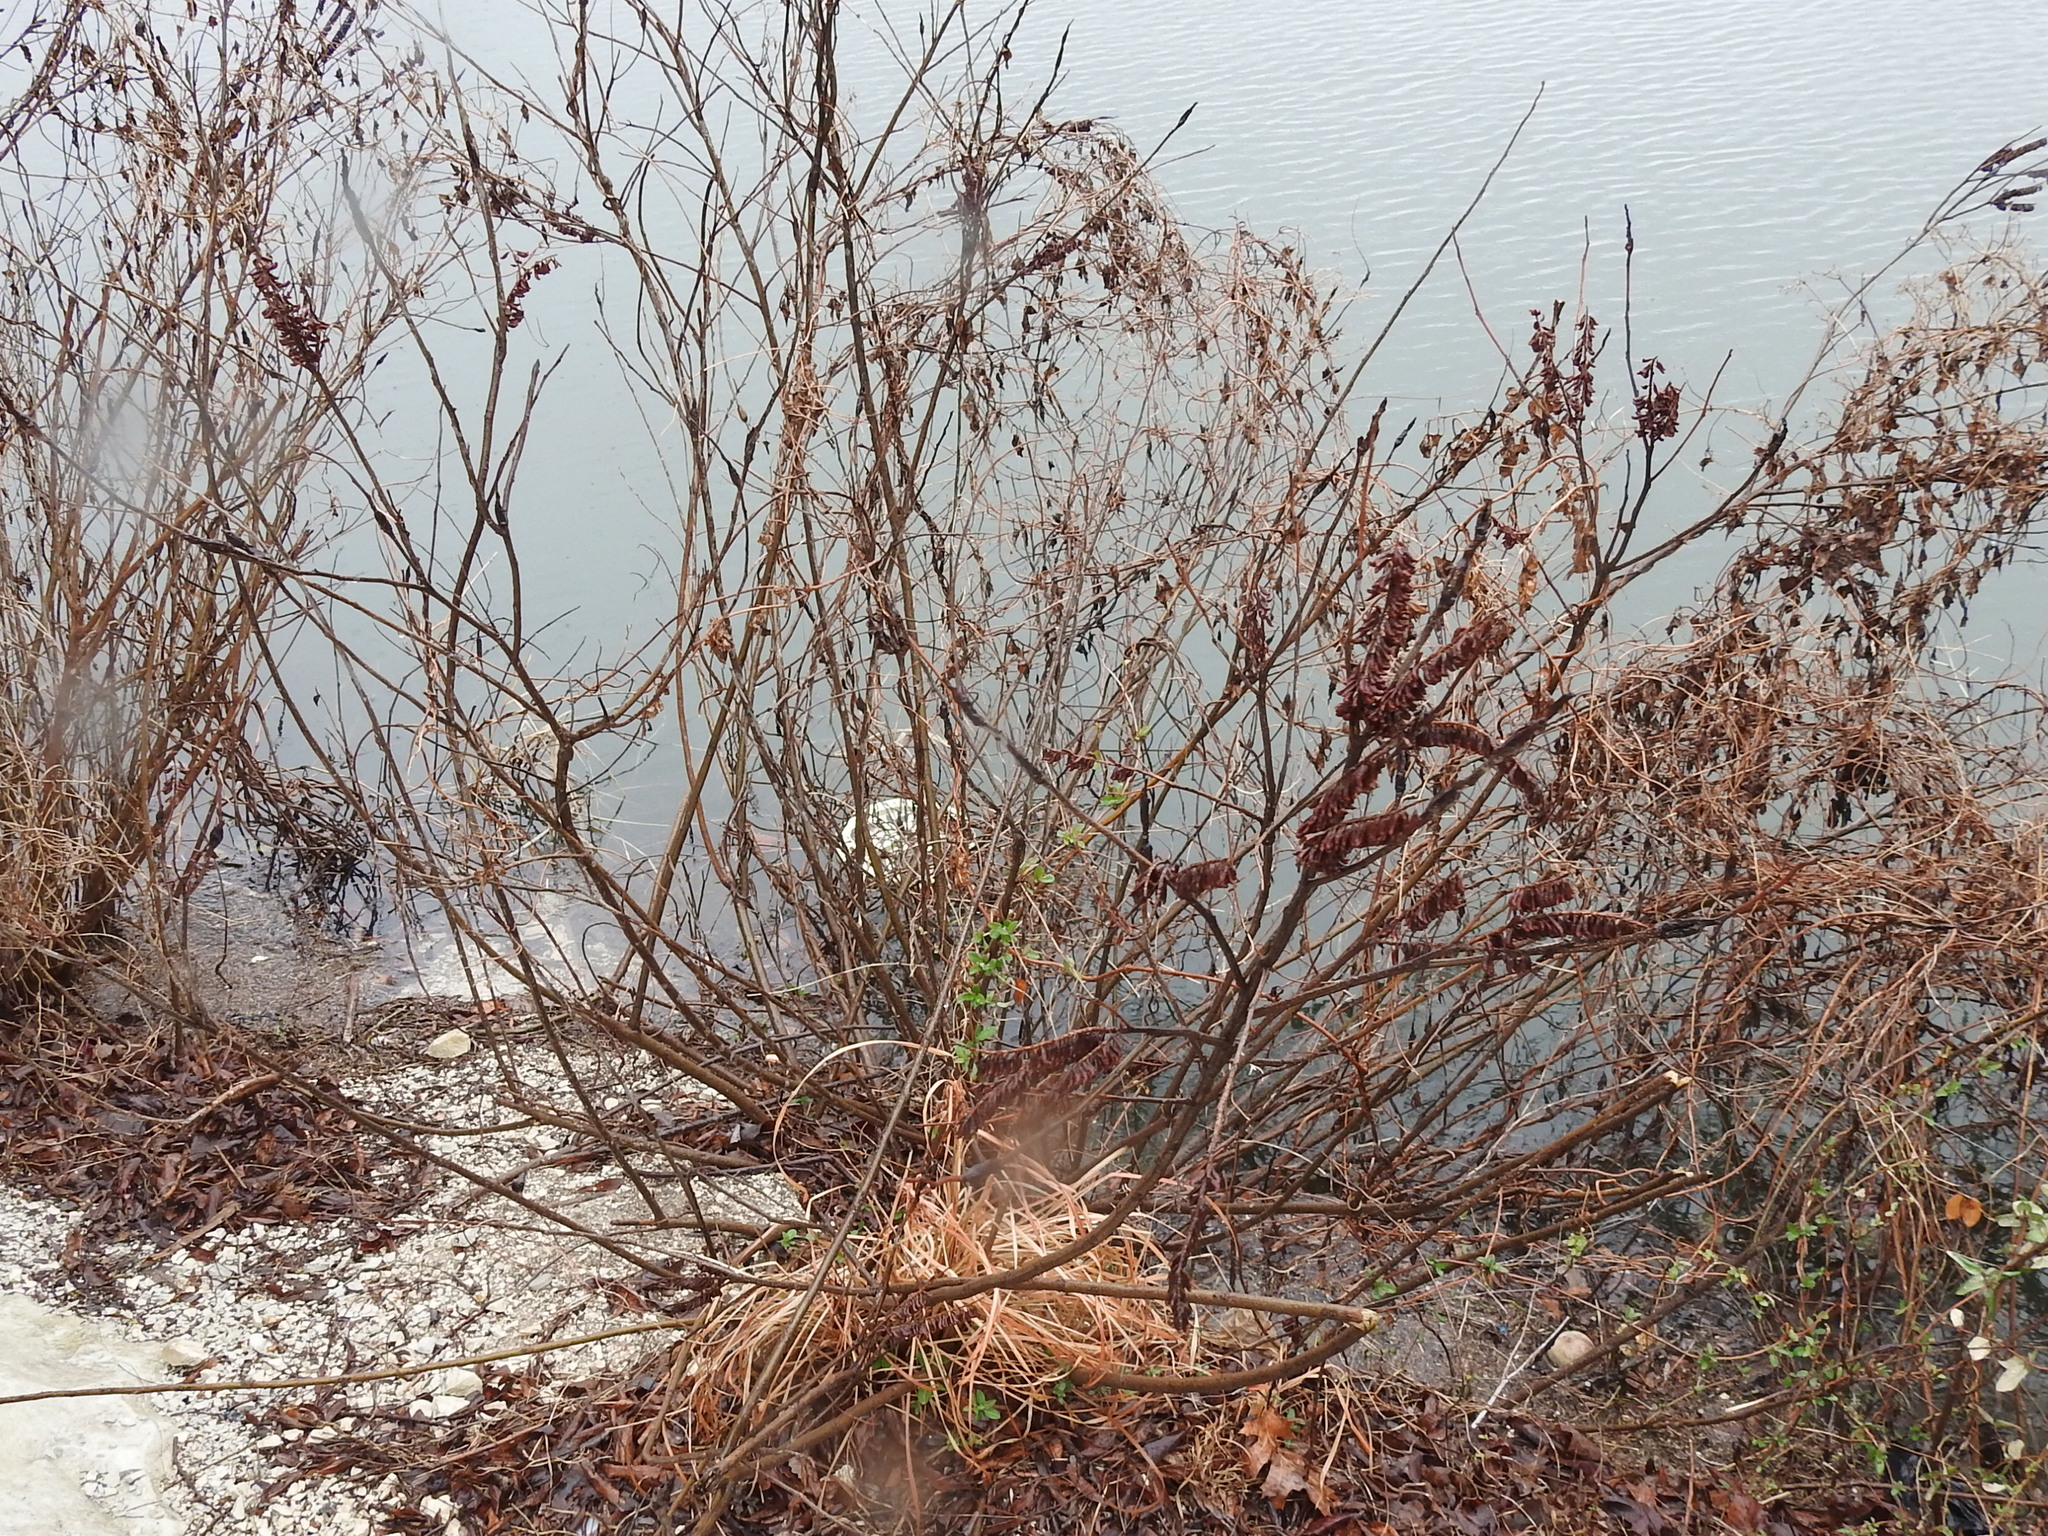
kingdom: Plantae
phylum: Tracheophyta
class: Magnoliopsida
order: Fabales
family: Fabaceae
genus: Amorpha
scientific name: Amorpha fruticosa
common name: False indigo
